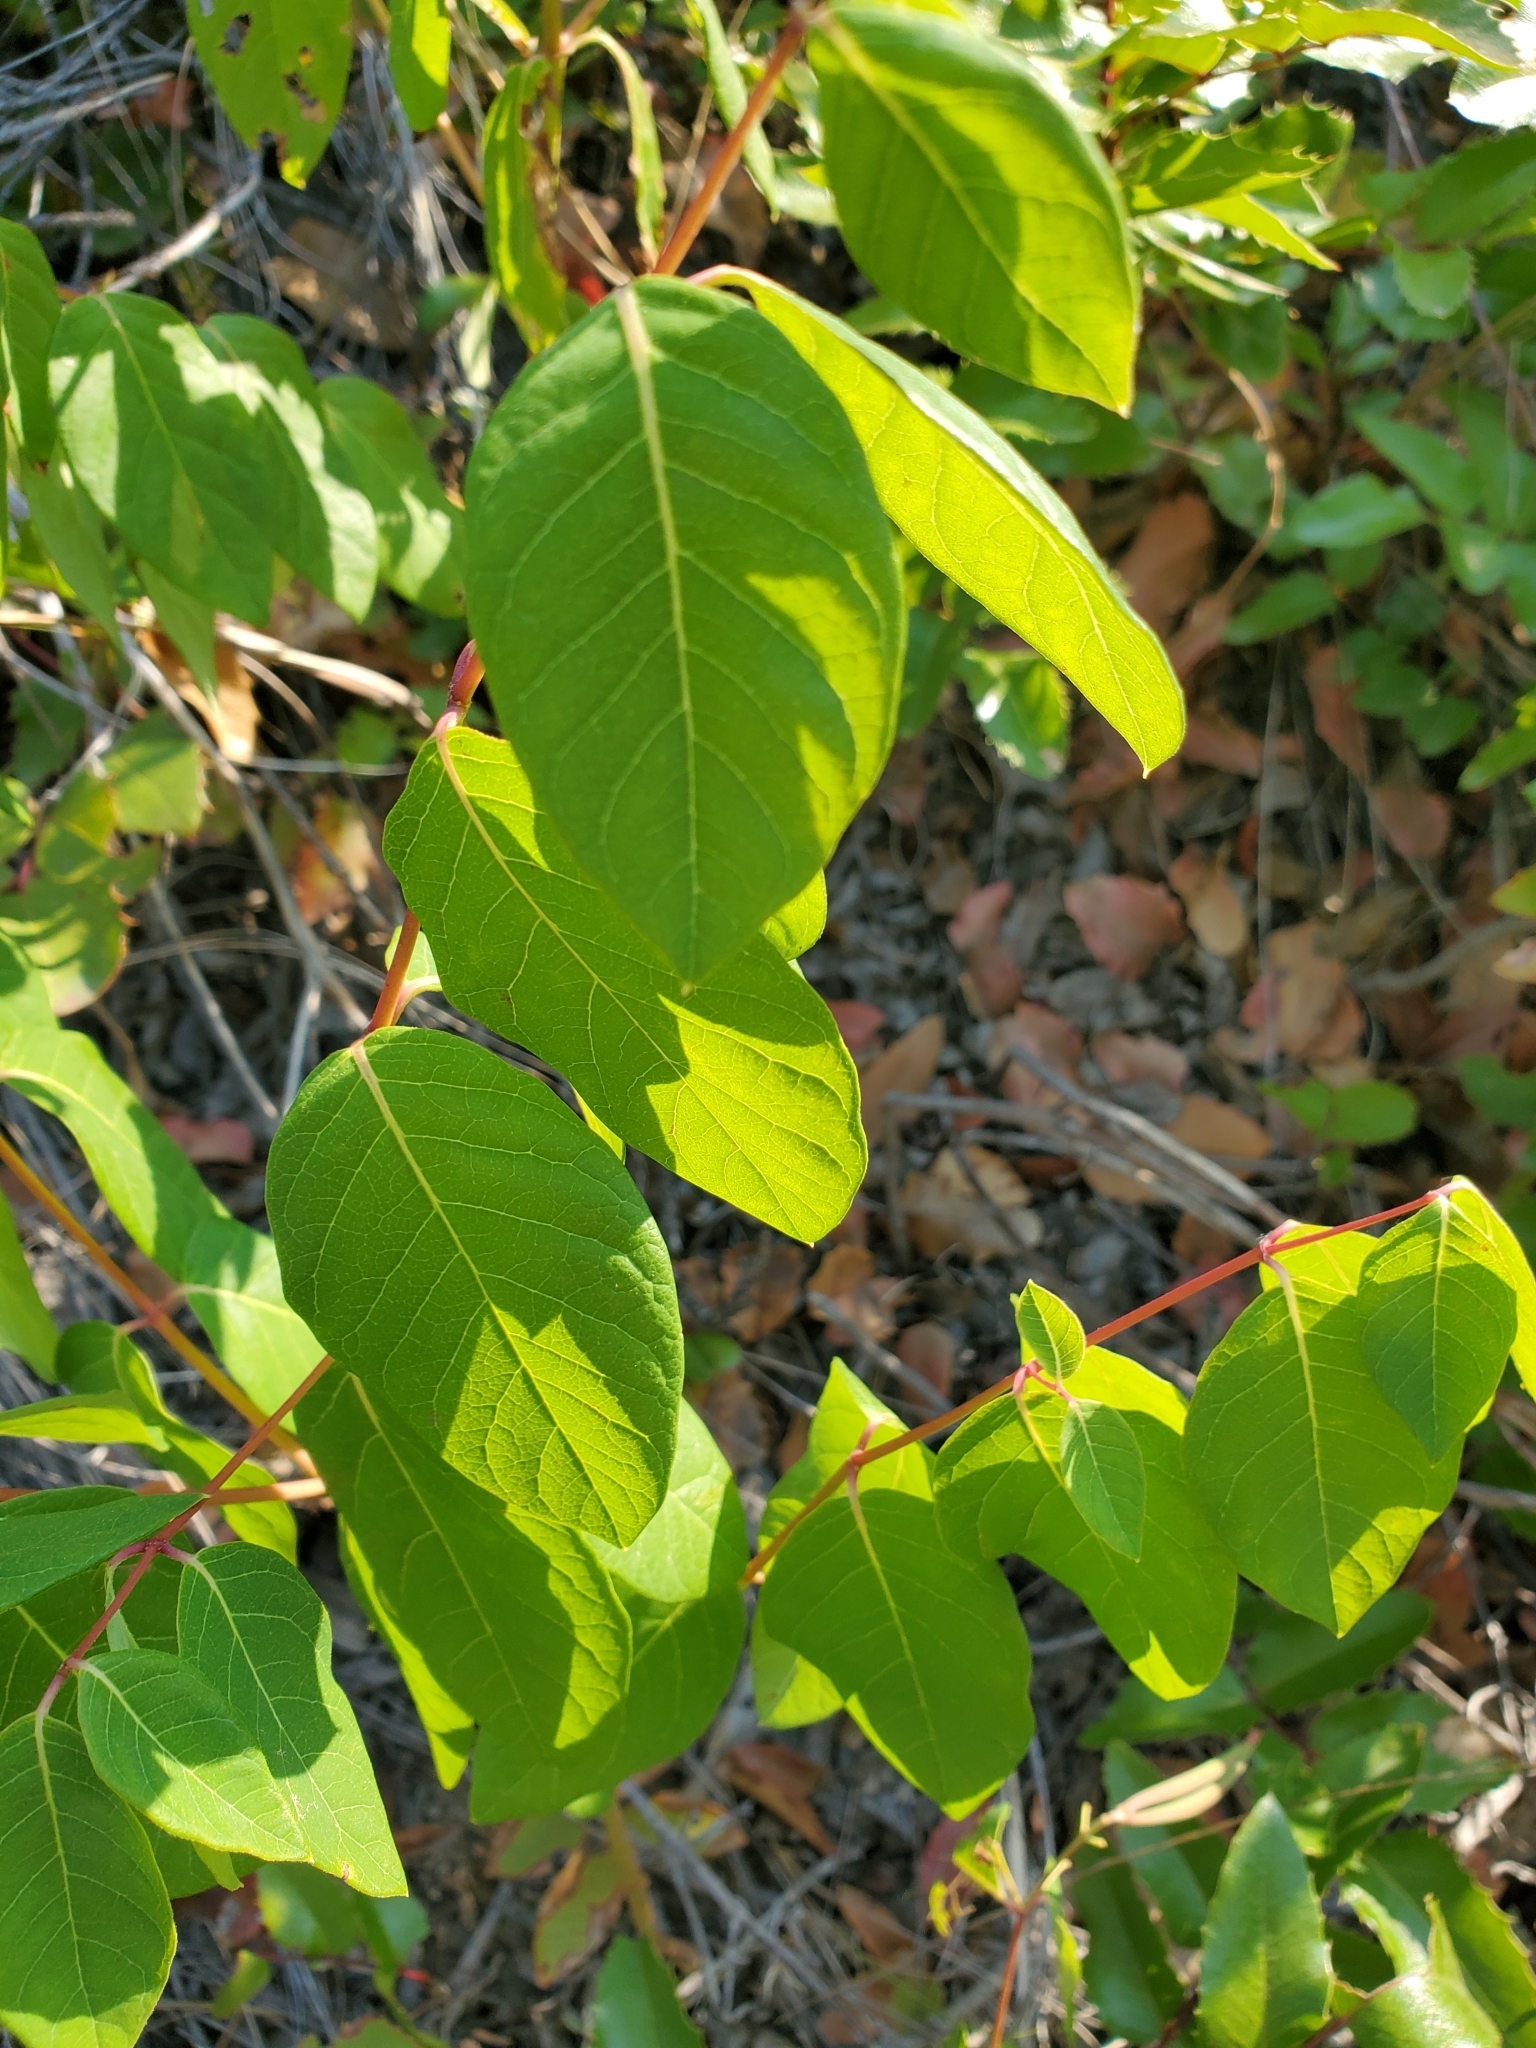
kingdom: Plantae
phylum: Tracheophyta
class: Magnoliopsida
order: Gentianales
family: Apocynaceae
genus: Apocynum
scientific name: Apocynum androsaemifolium
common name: Spreading dogbane
